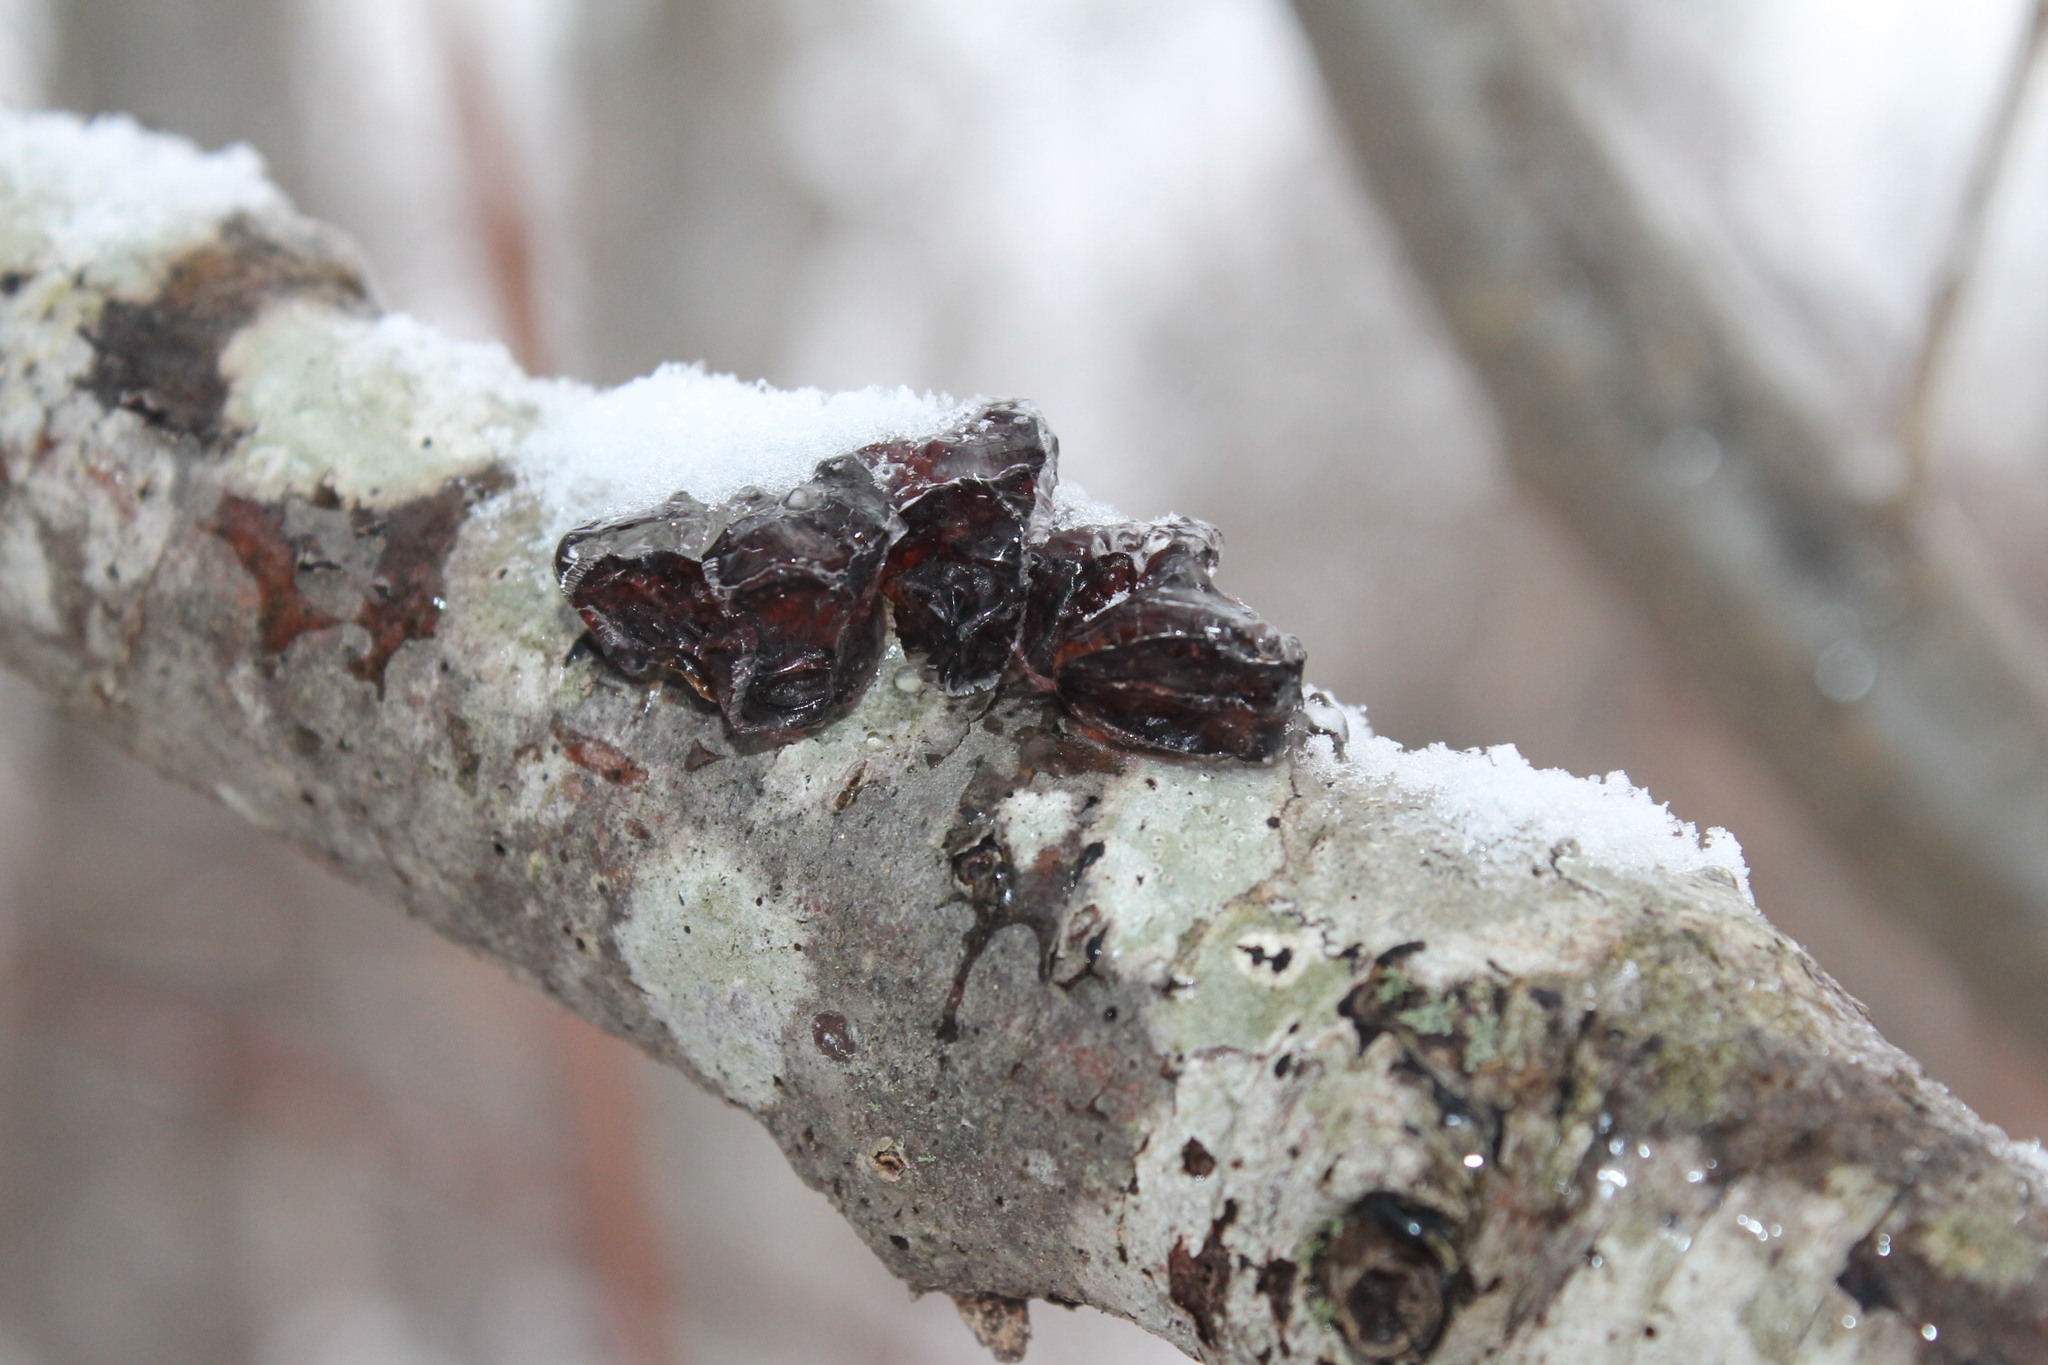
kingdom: Fungi
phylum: Basidiomycota
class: Agaricomycetes
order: Auriculariales
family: Auriculariaceae
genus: Exidia
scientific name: Exidia
